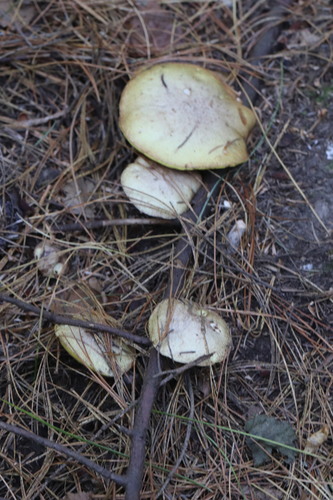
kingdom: Fungi
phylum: Basidiomycota
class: Agaricomycetes
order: Boletales
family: Suillaceae
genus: Suillus
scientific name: Suillus placidus
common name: Slippery white bolete
